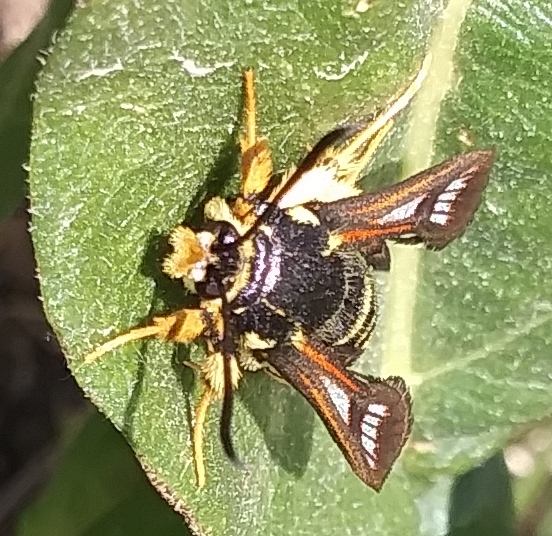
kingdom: Animalia
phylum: Arthropoda
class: Insecta
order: Lepidoptera
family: Sesiidae
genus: Albuna
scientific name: Albuna pyramidalis
